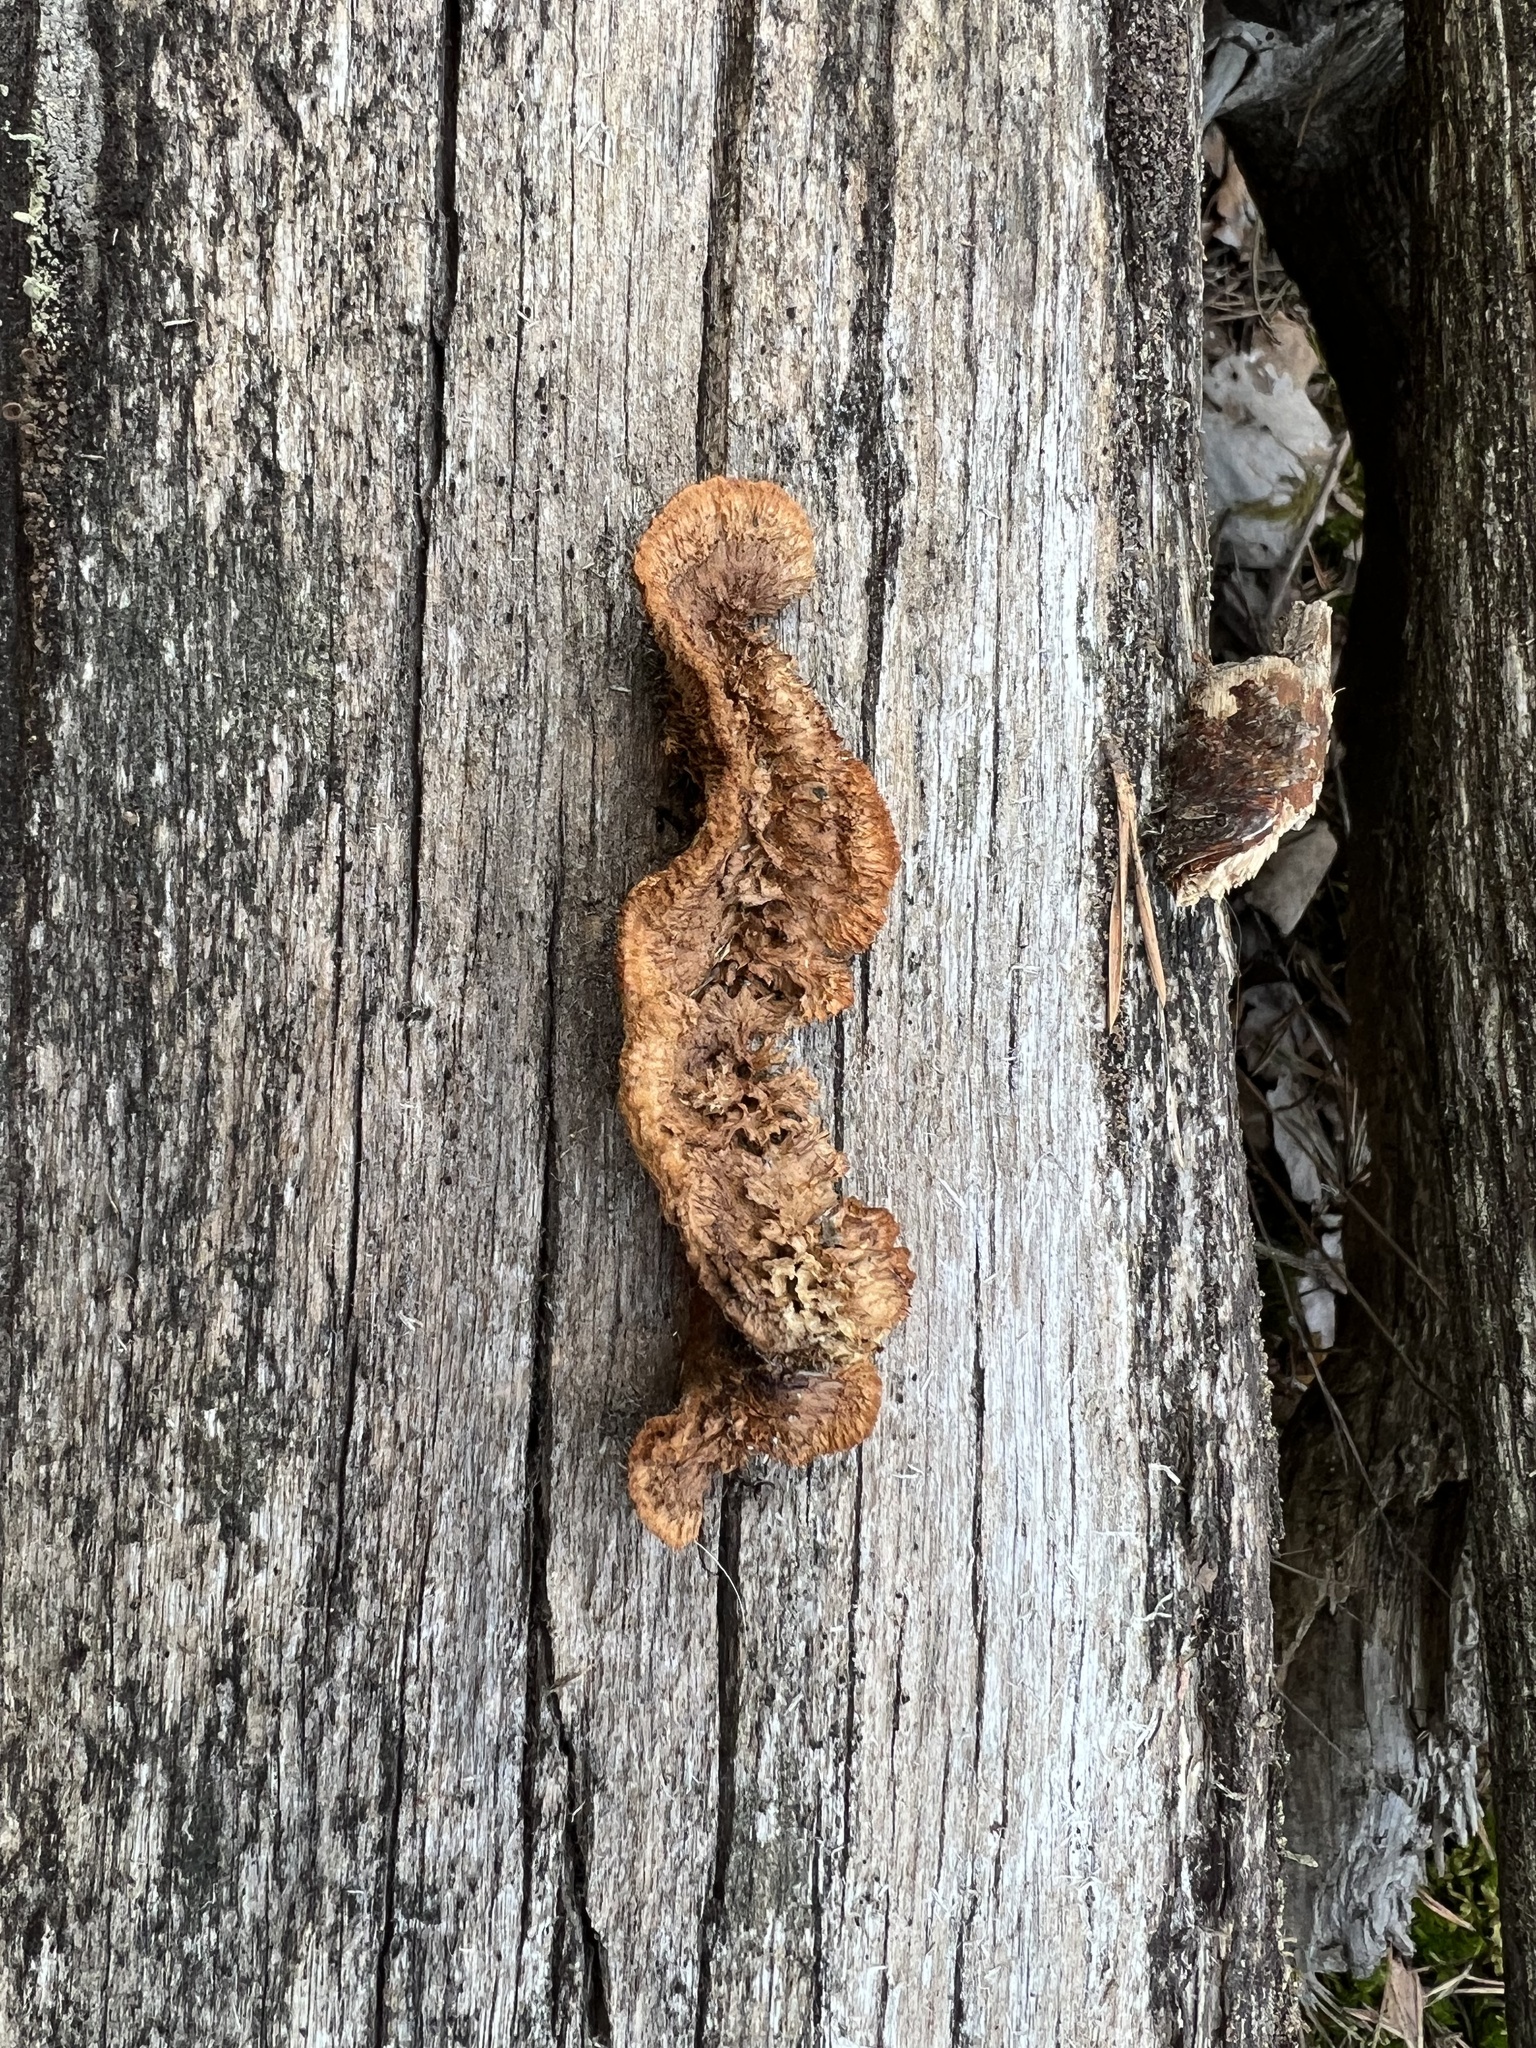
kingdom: Fungi
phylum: Basidiomycota
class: Agaricomycetes
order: Gloeophyllales
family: Gloeophyllaceae
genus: Gloeophyllum
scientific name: Gloeophyllum sepiarium
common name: Conifer mazegill
